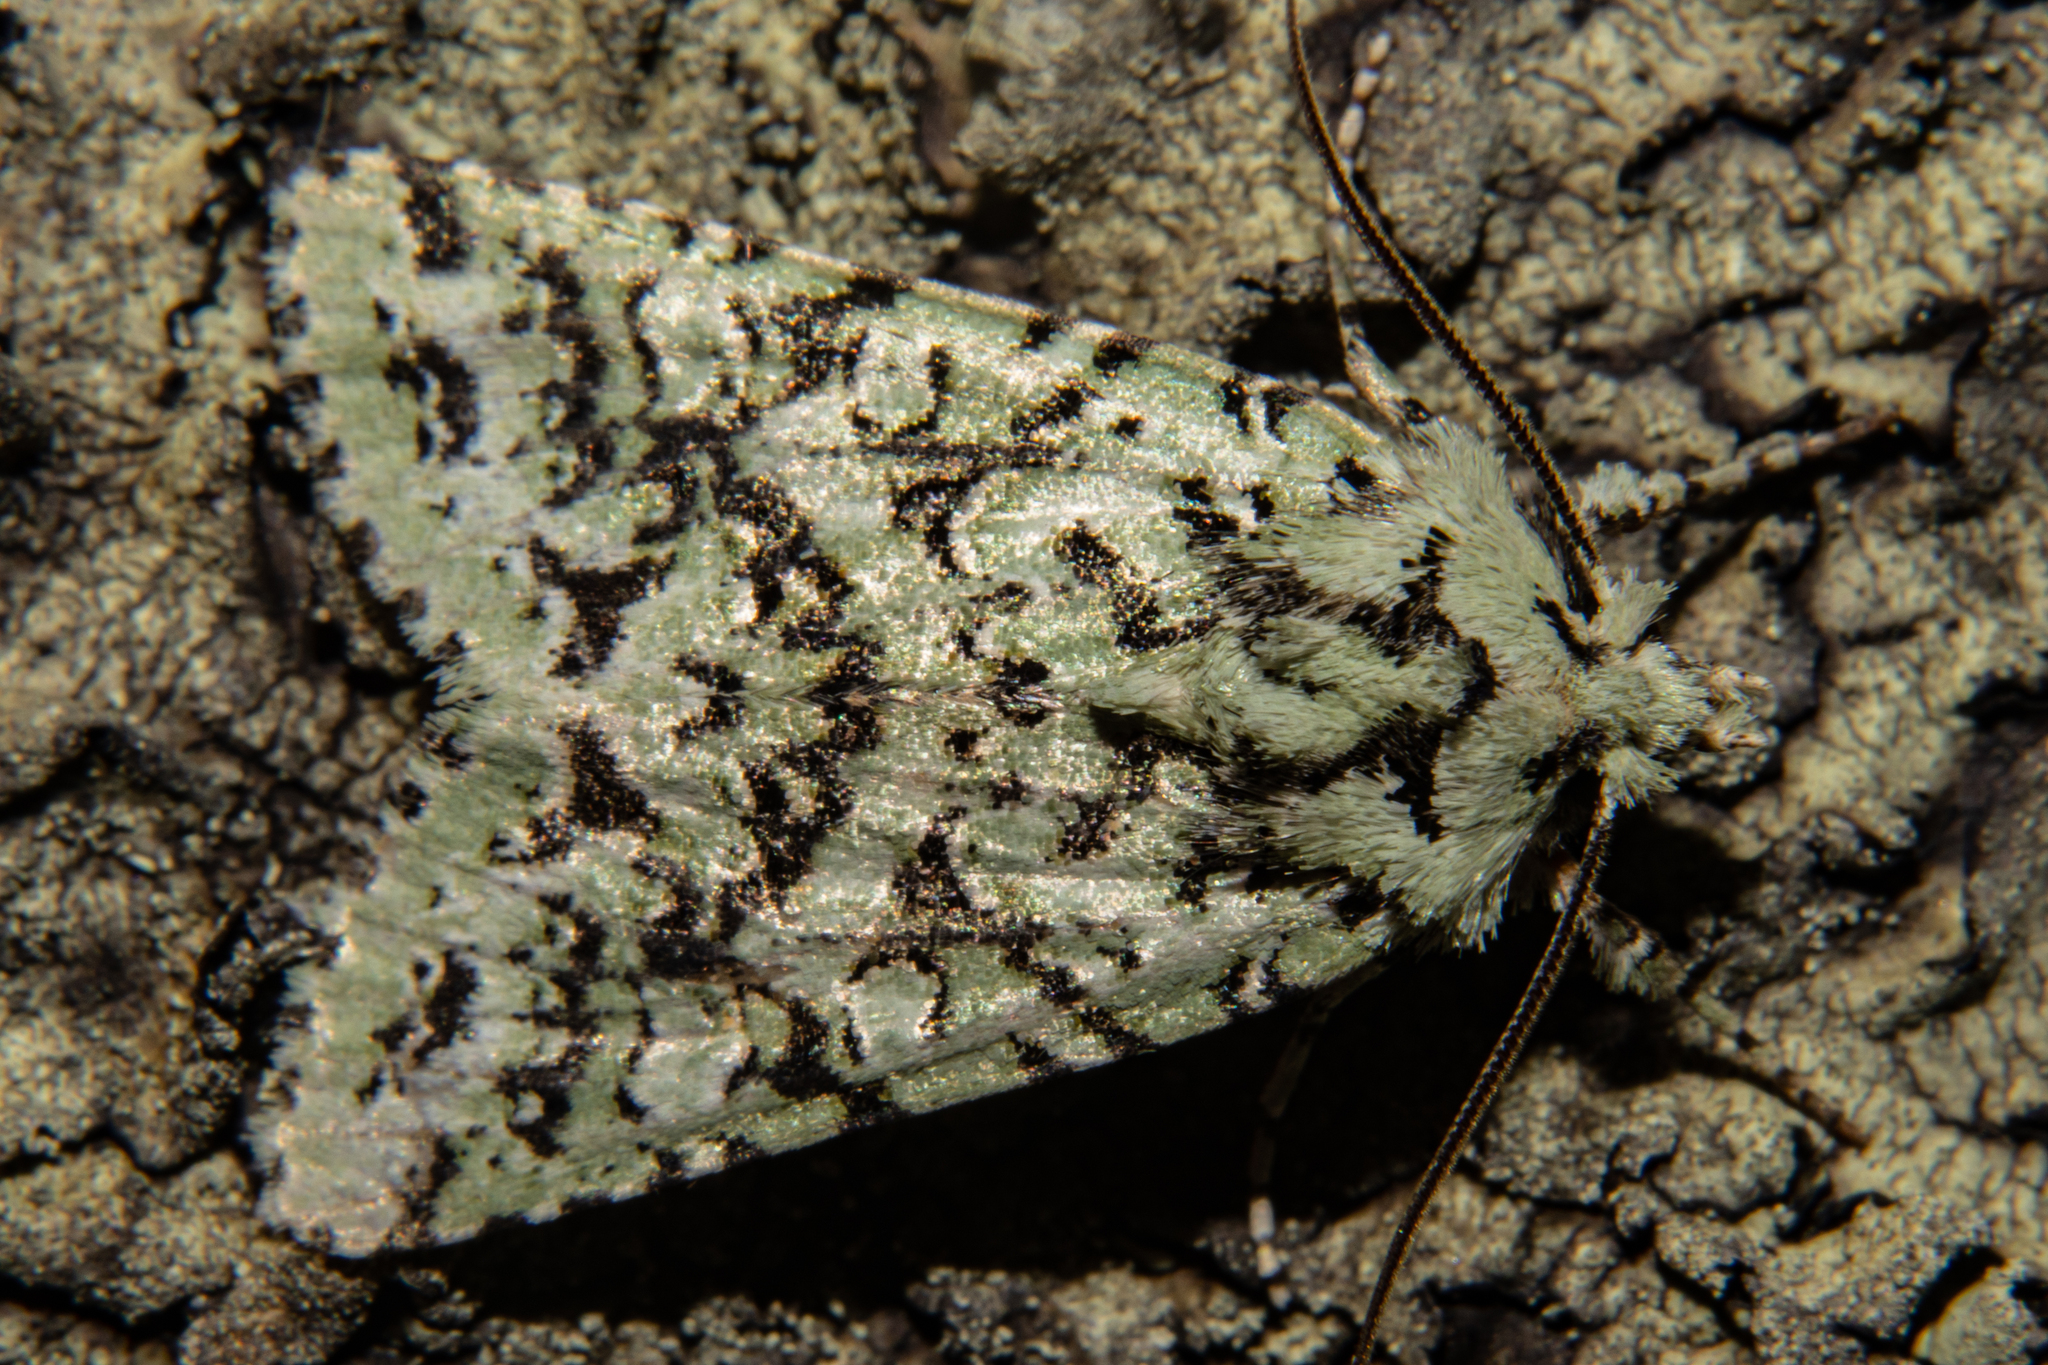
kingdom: Animalia
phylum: Arthropoda
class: Insecta
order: Lepidoptera
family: Noctuidae
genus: Meterana
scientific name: Meterana
